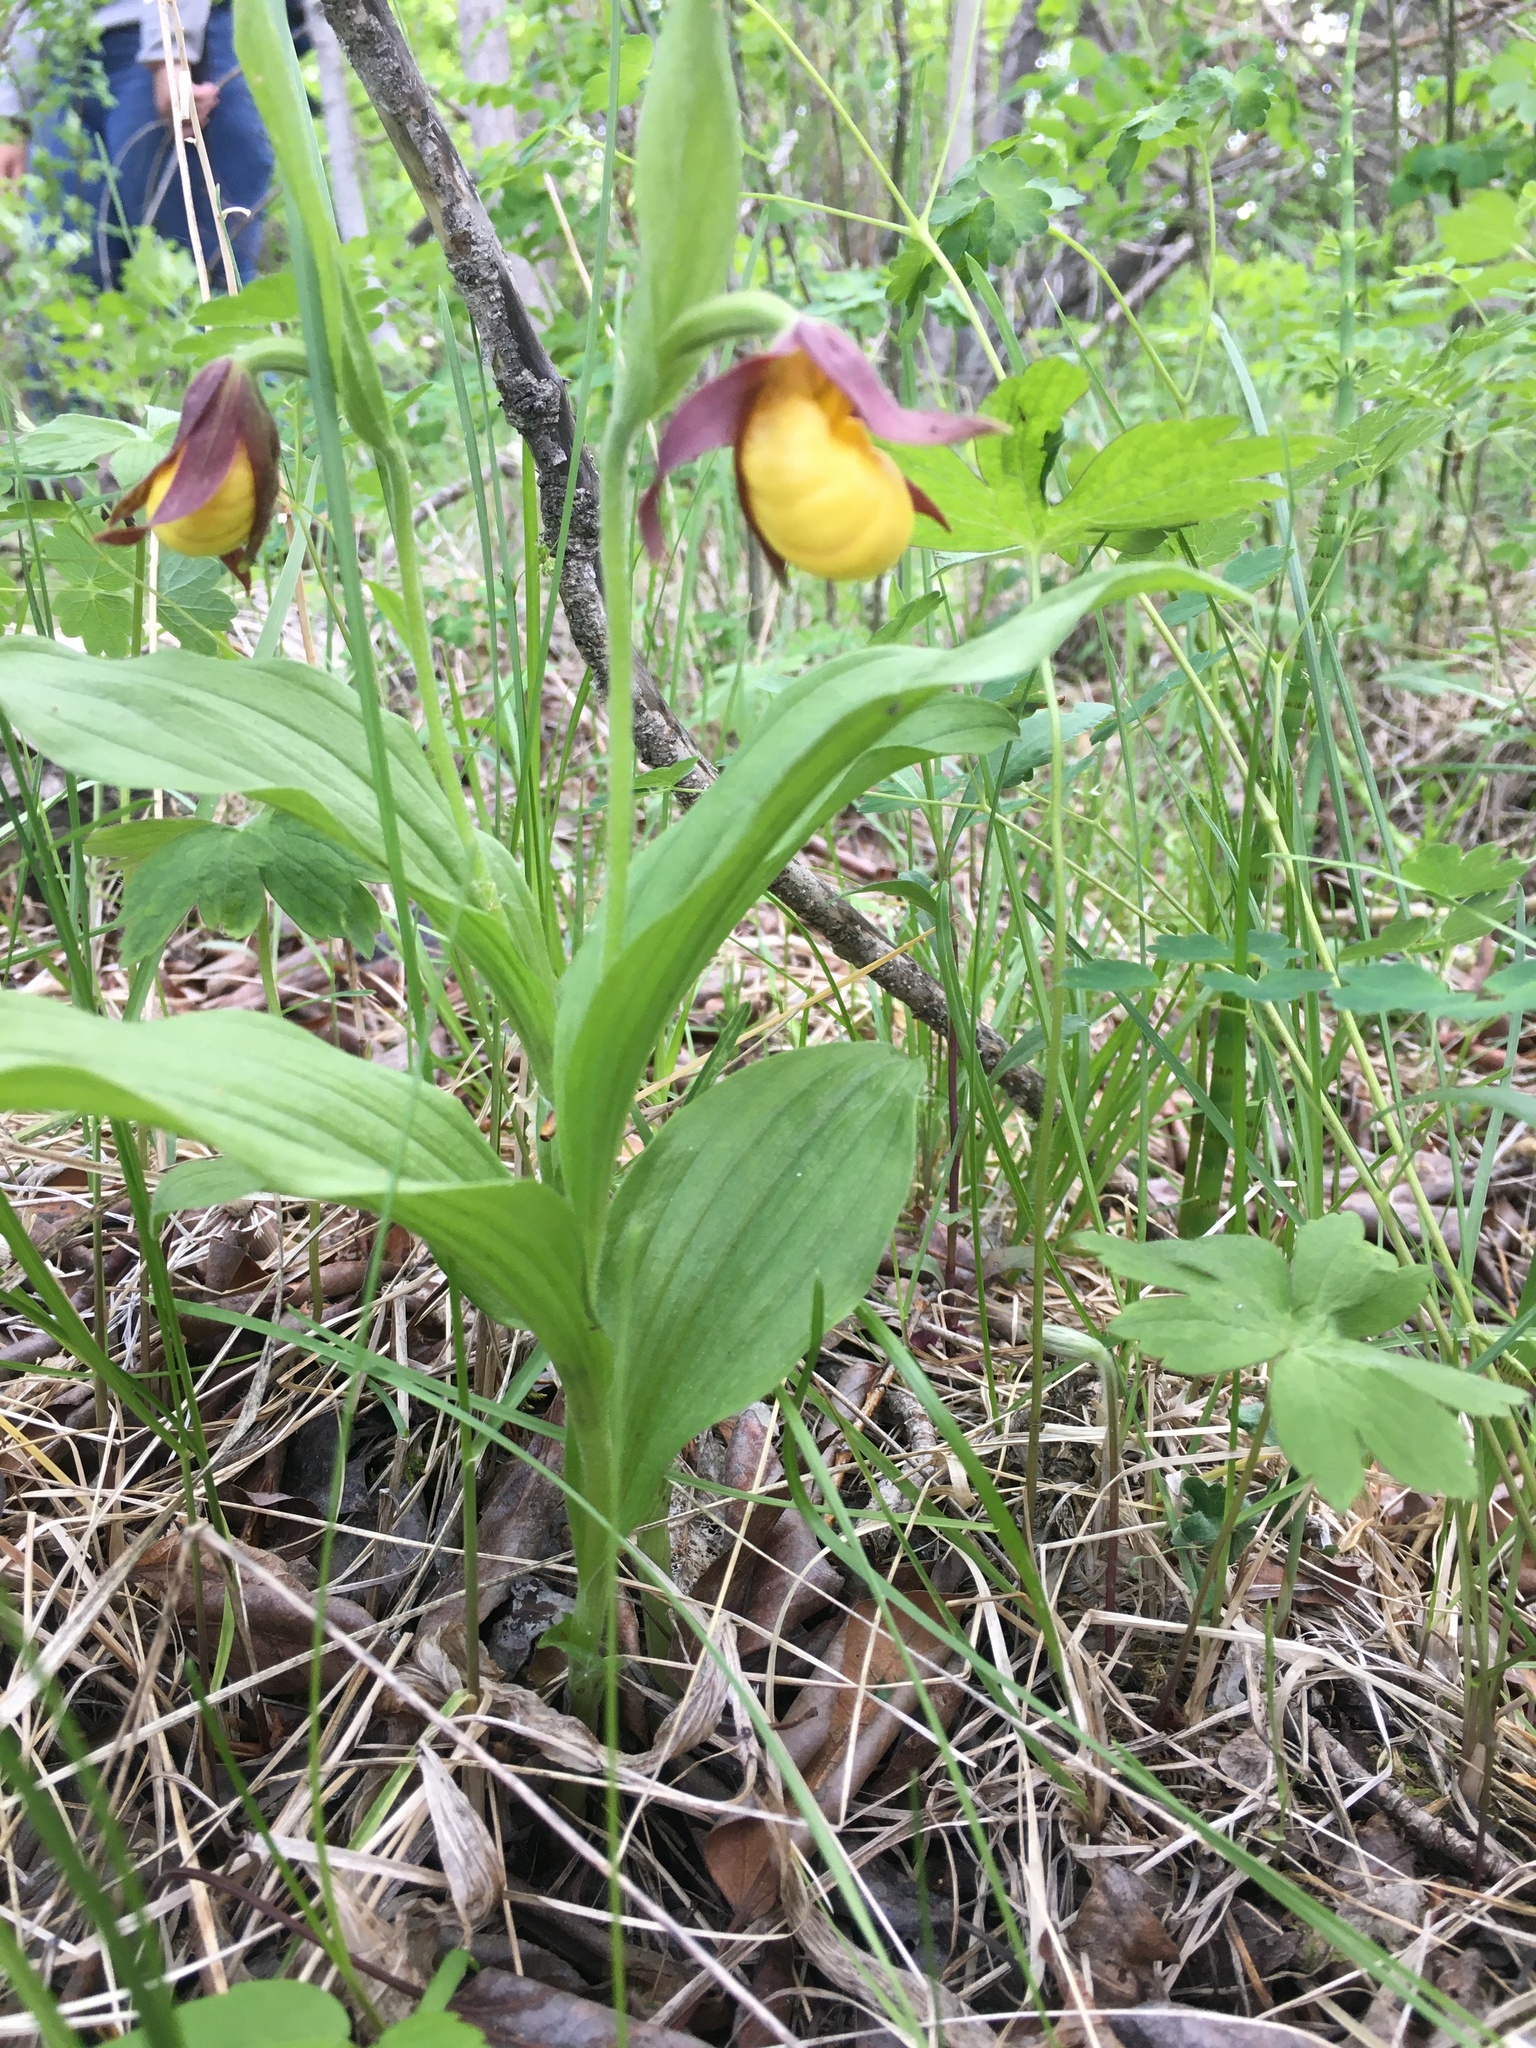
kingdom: Plantae
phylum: Tracheophyta
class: Liliopsida
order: Asparagales
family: Orchidaceae
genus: Cypripedium
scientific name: Cypripedium parviflorum
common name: American yellow lady's-slipper
